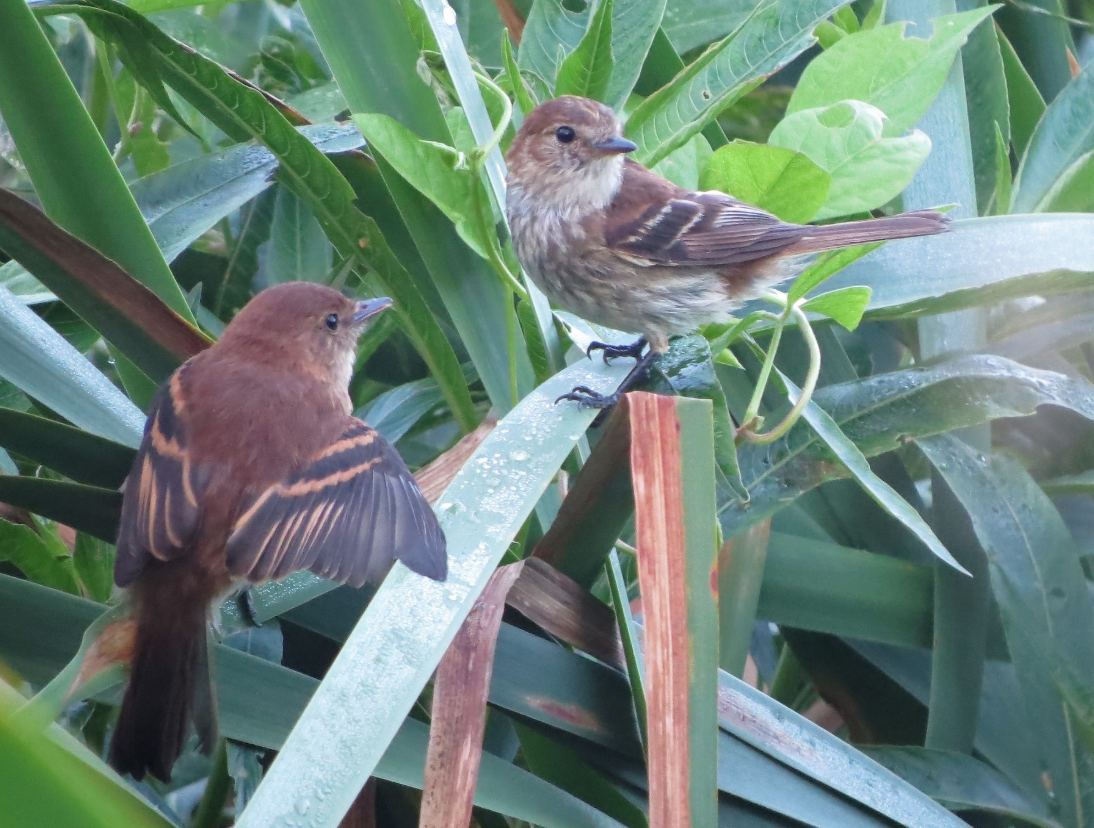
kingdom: Animalia
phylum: Chordata
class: Aves
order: Passeriformes
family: Tyrannidae
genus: Myiophobus
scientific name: Myiophobus fasciatus
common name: Bran-colored flycatcher
